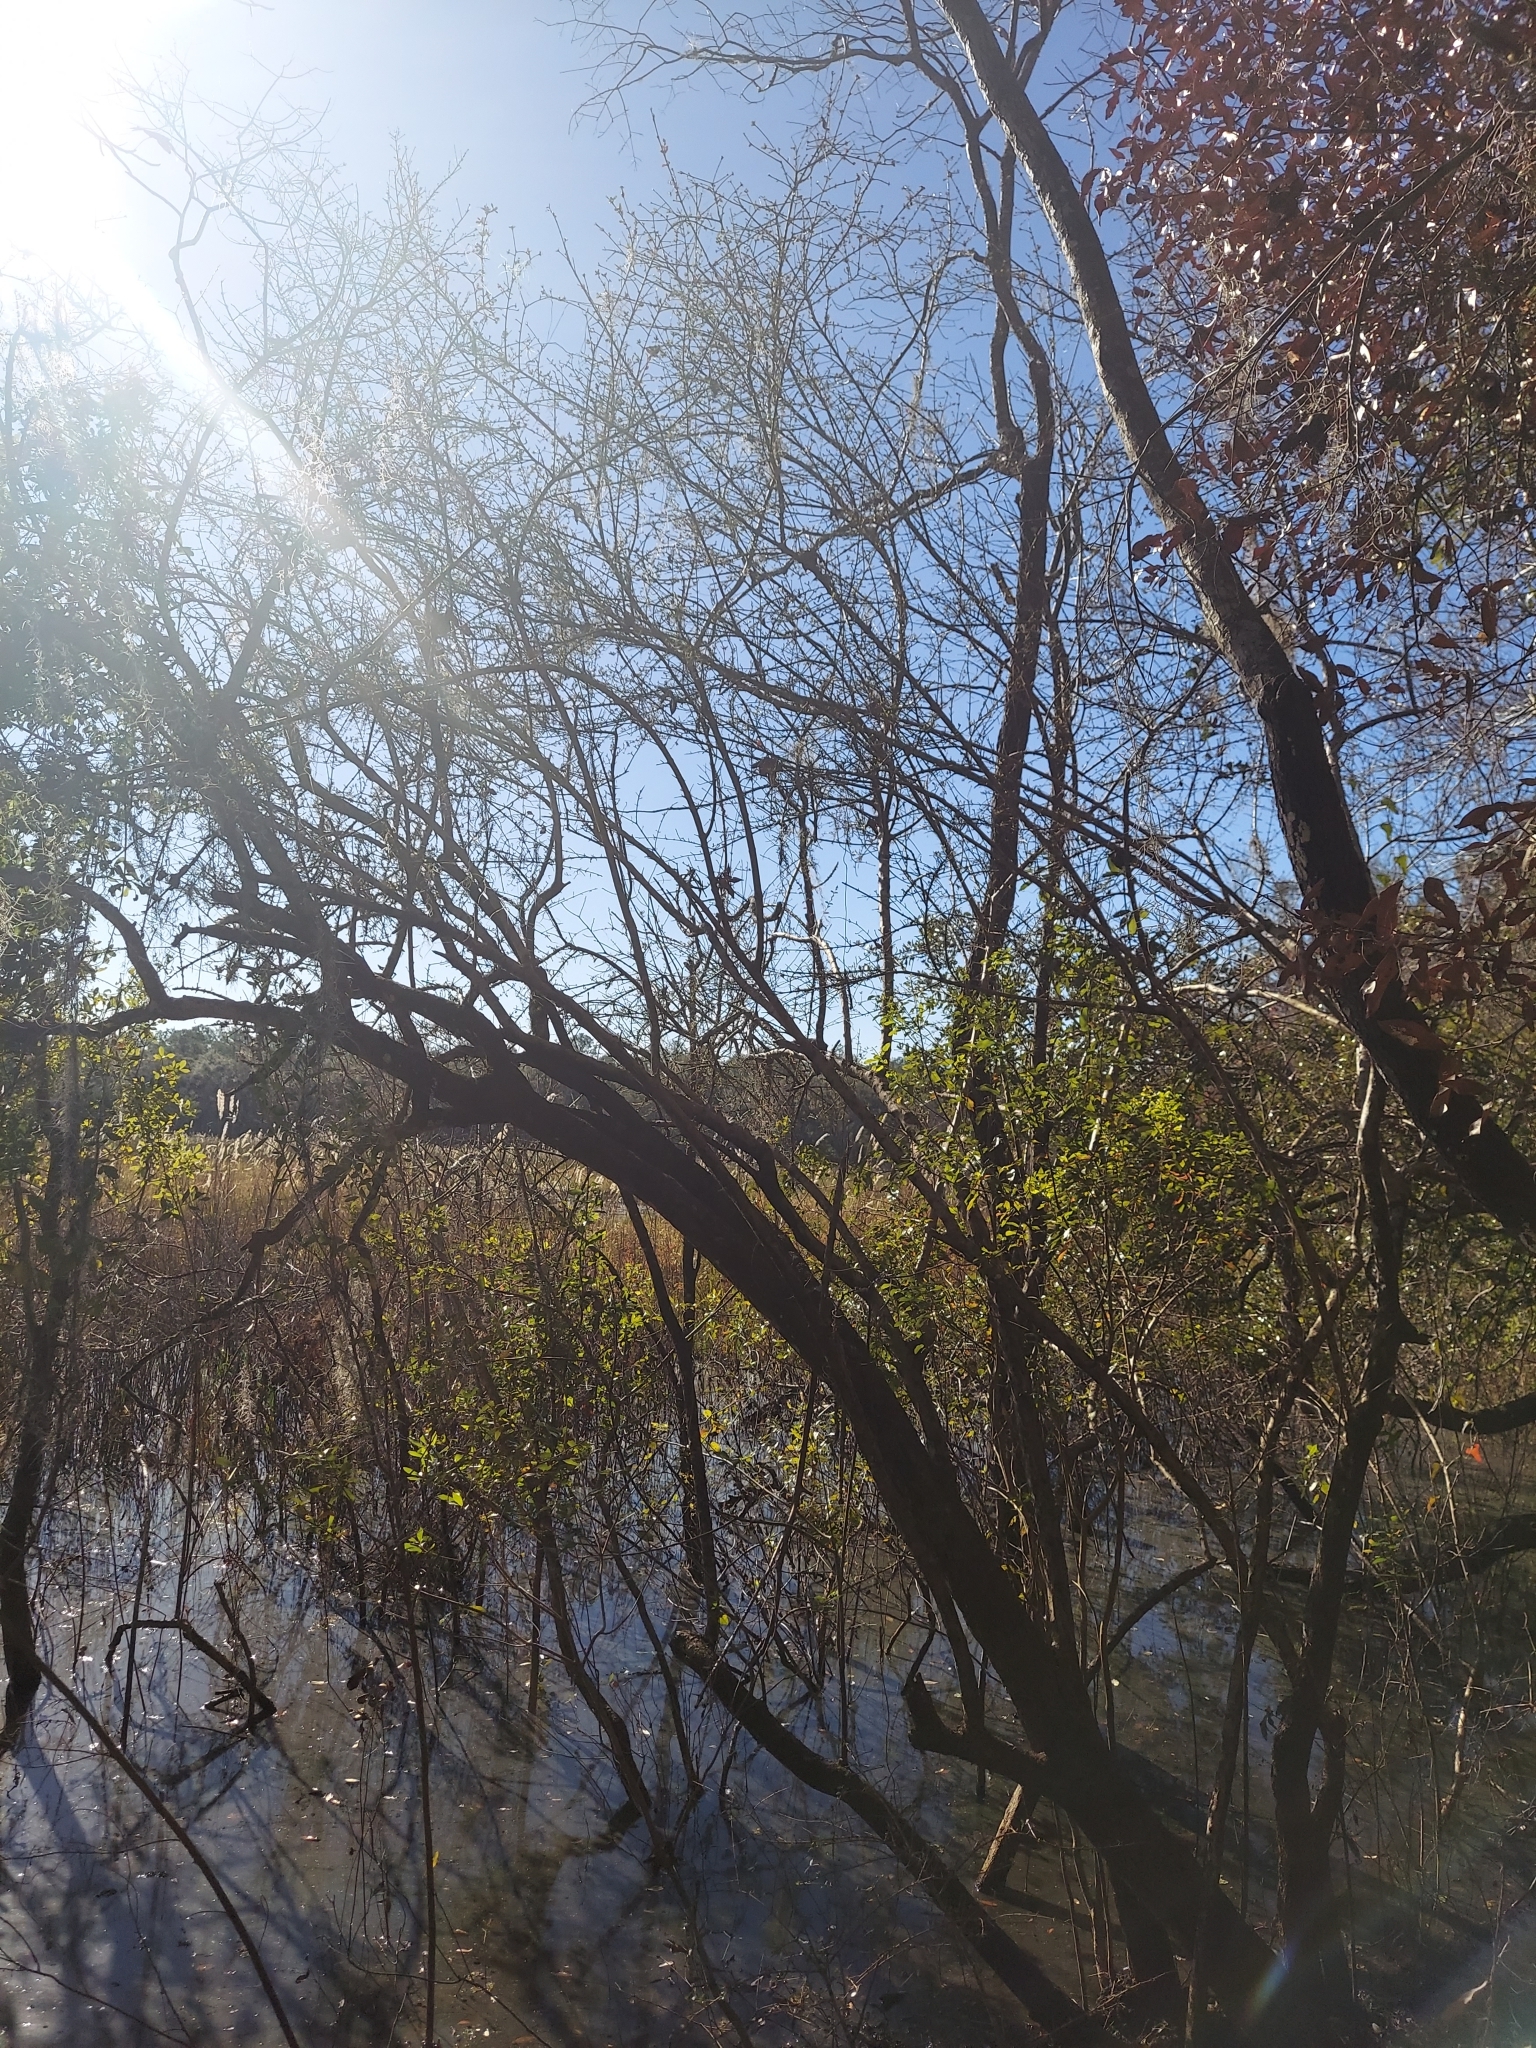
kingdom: Plantae
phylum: Tracheophyta
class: Magnoliopsida
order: Dipsacales
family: Viburnaceae
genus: Viburnum
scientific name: Viburnum obovatum
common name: Walter's viburnum
